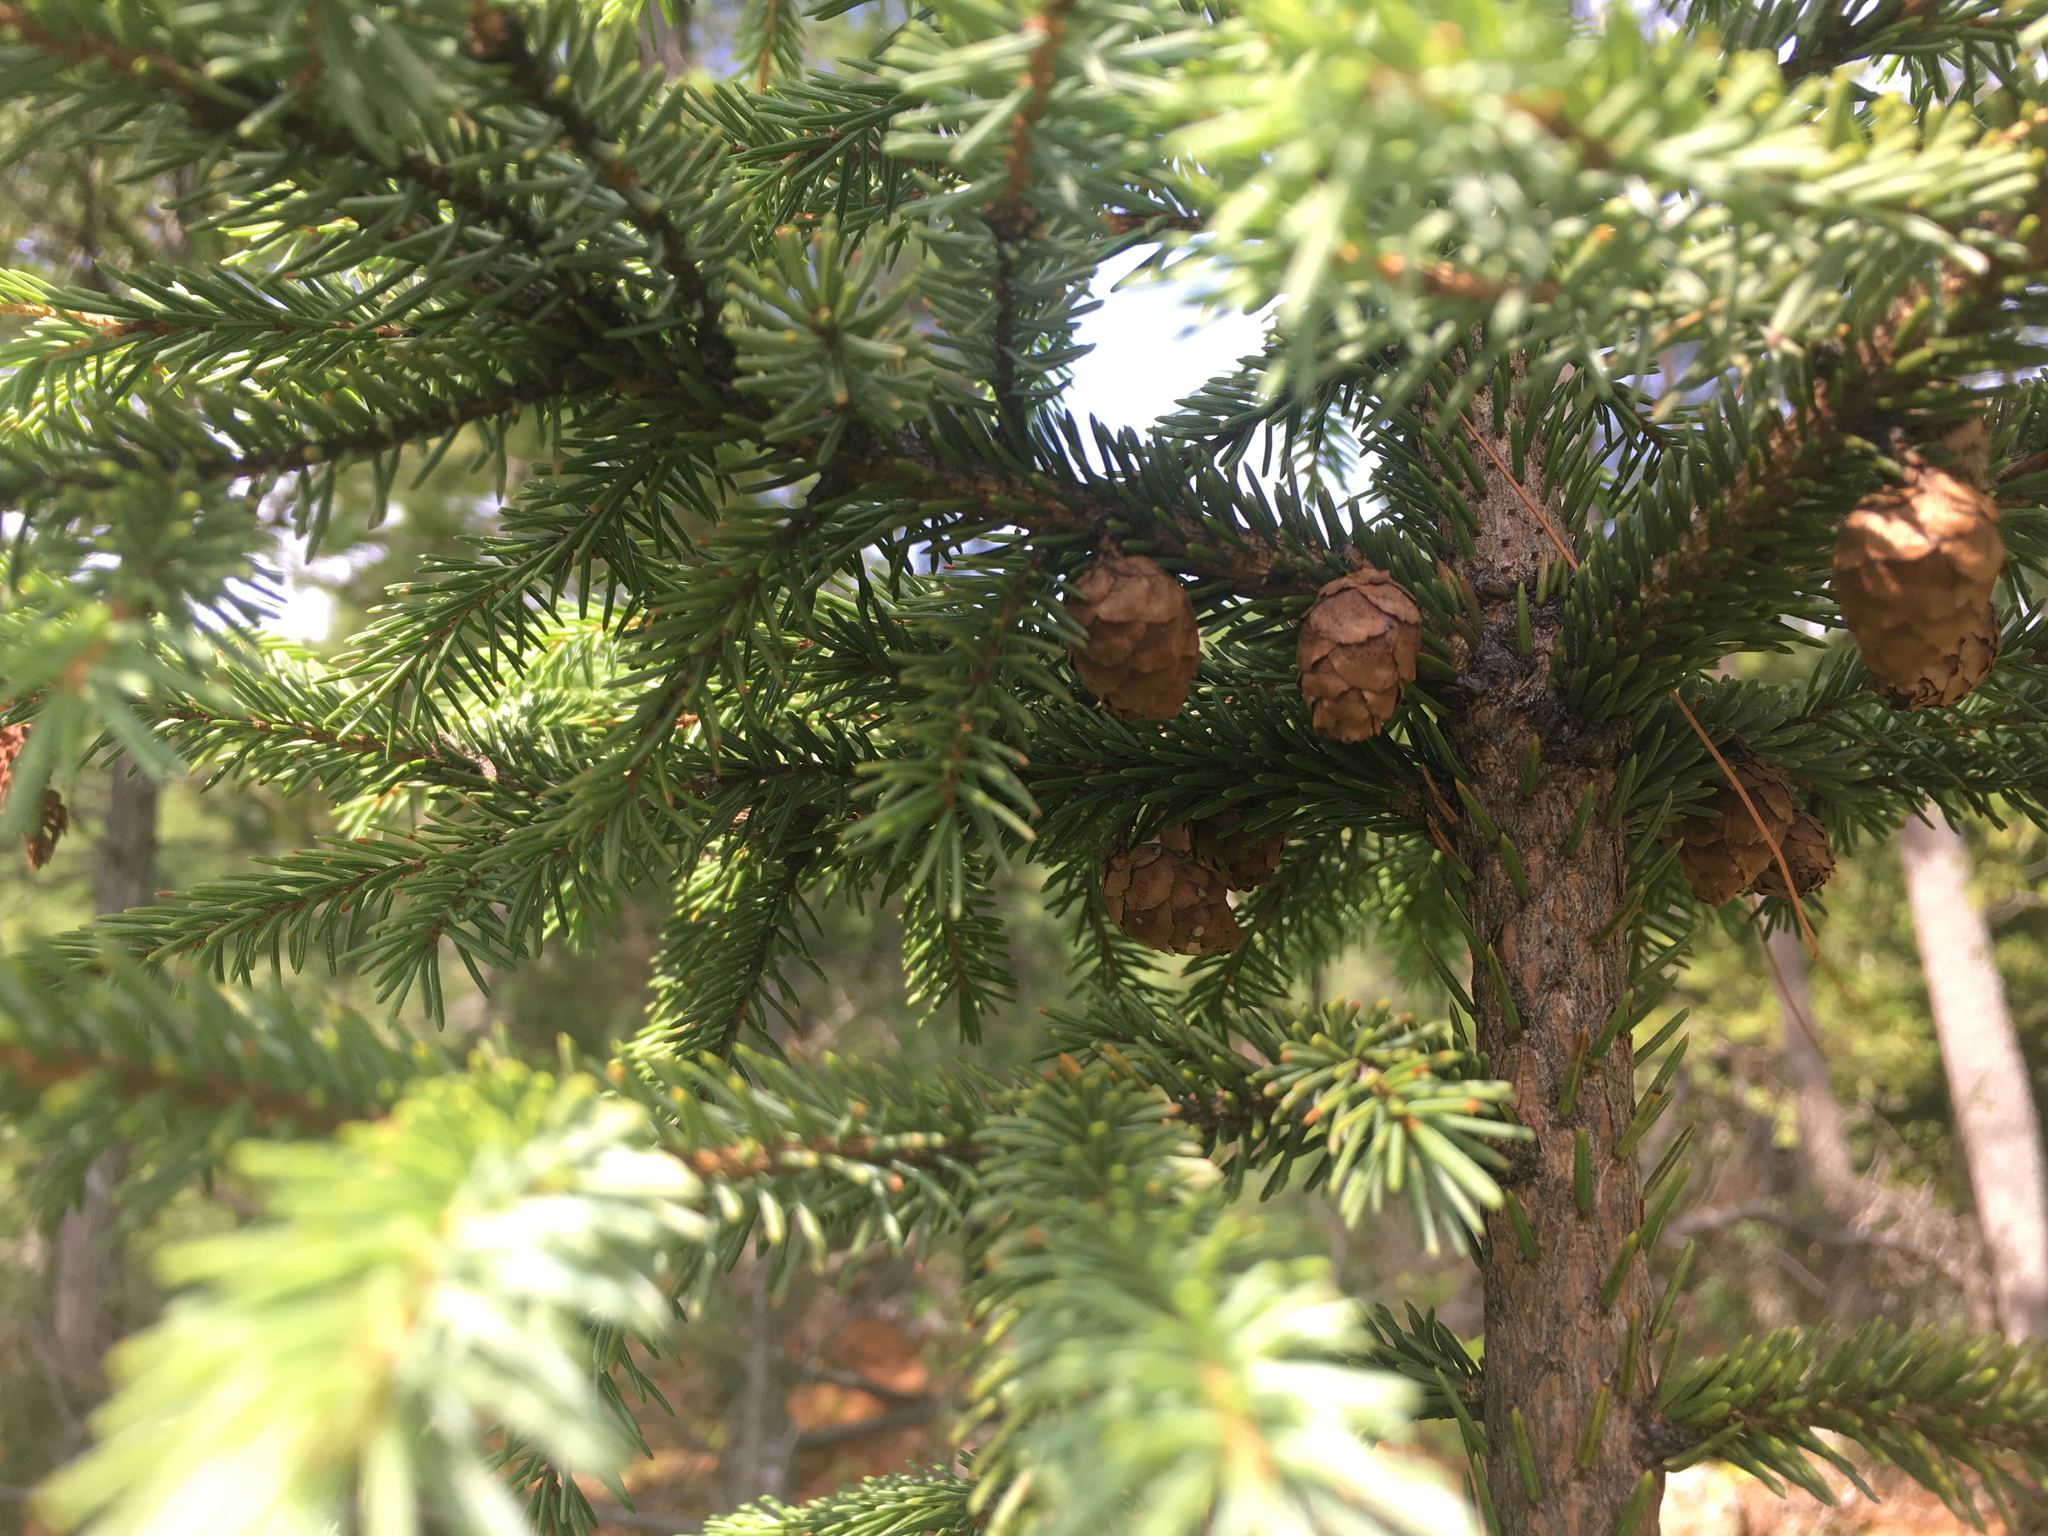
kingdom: Plantae
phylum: Tracheophyta
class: Pinopsida
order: Pinales
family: Pinaceae
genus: Picea
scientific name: Picea mariana
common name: Black spruce
